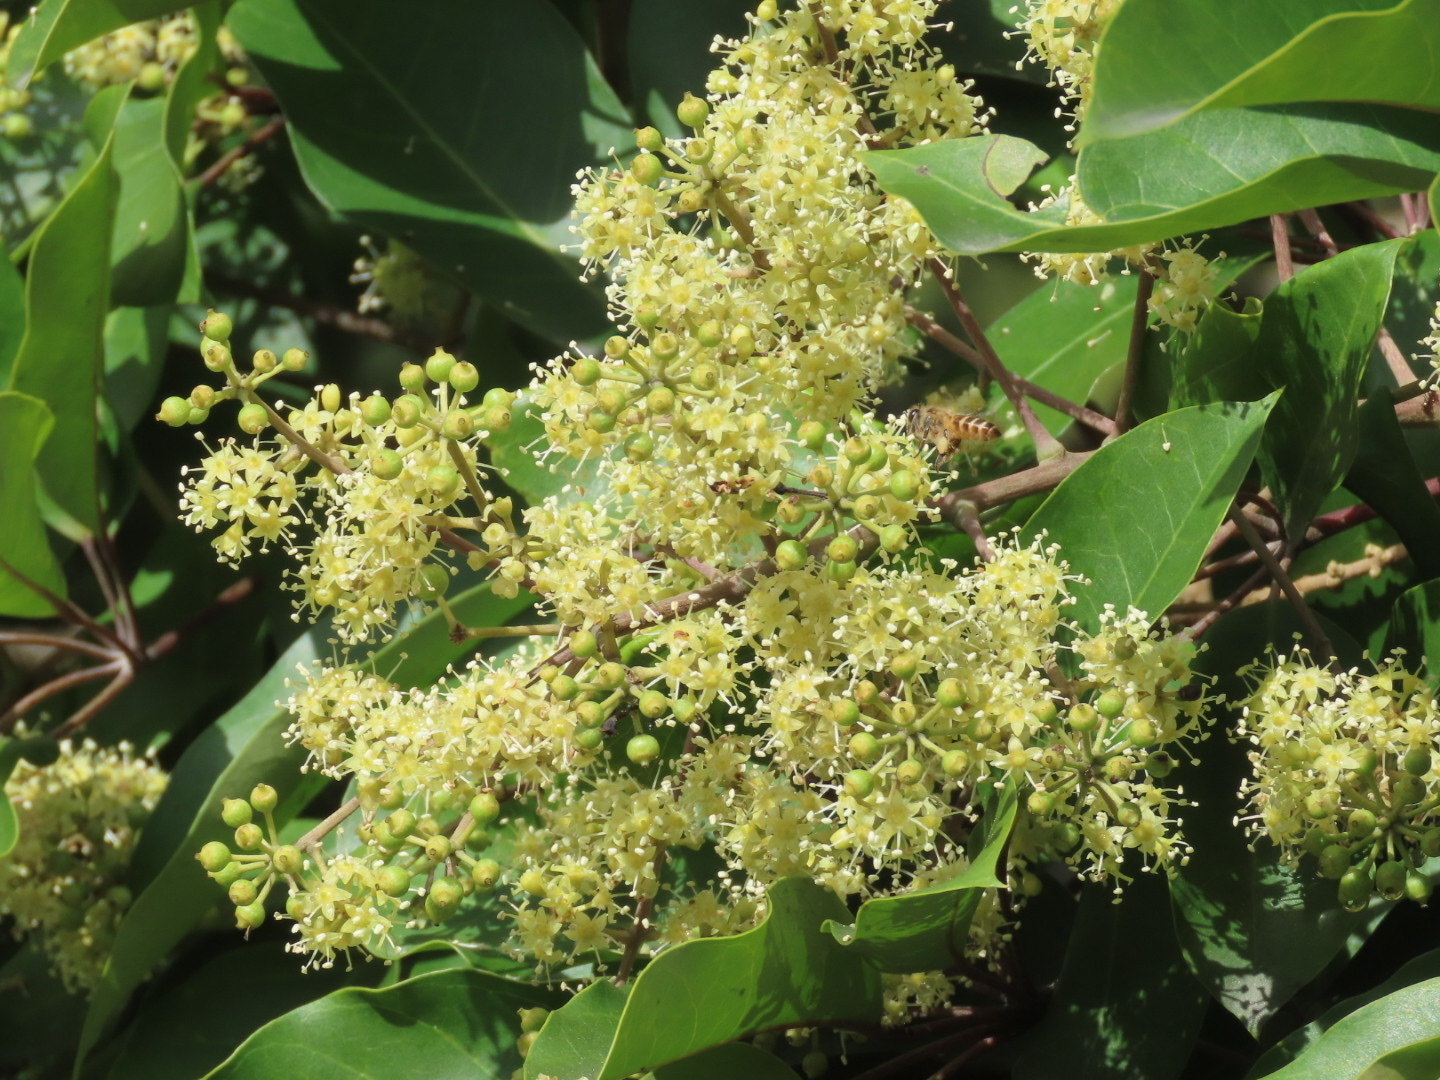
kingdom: Plantae
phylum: Tracheophyta
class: Magnoliopsida
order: Apiales
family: Araliaceae
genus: Heptapleurum
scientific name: Heptapleurum heptaphyllum
